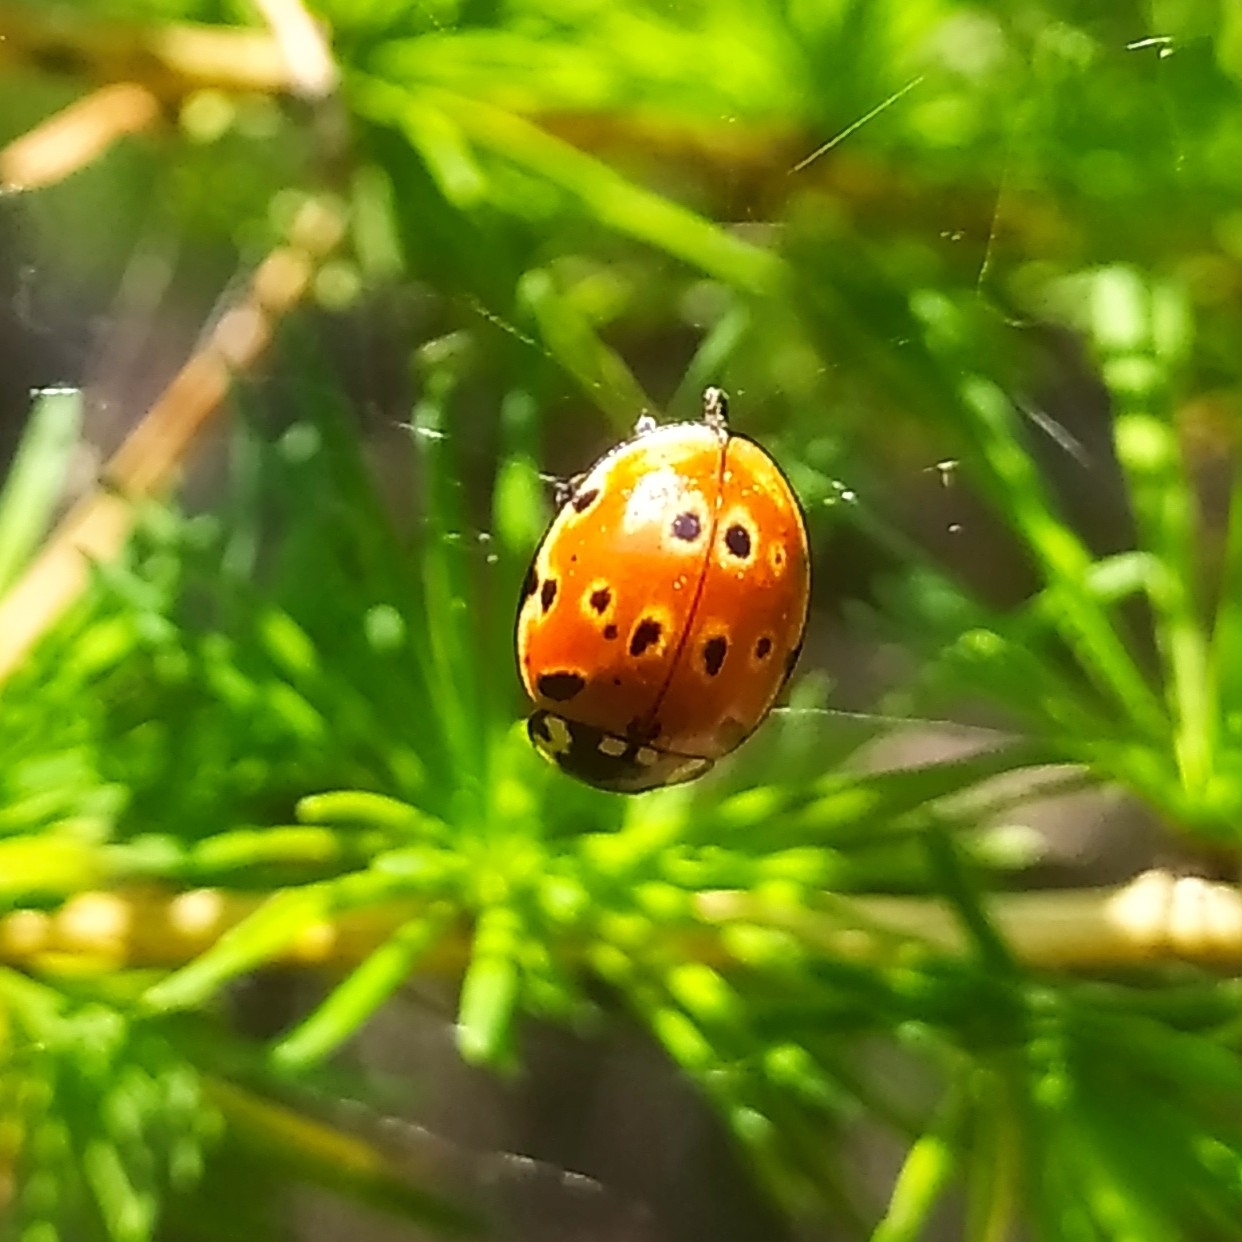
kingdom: Animalia
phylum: Arthropoda
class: Insecta
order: Coleoptera
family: Coccinellidae
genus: Anatis
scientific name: Anatis ocellata
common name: Eyed ladybird
